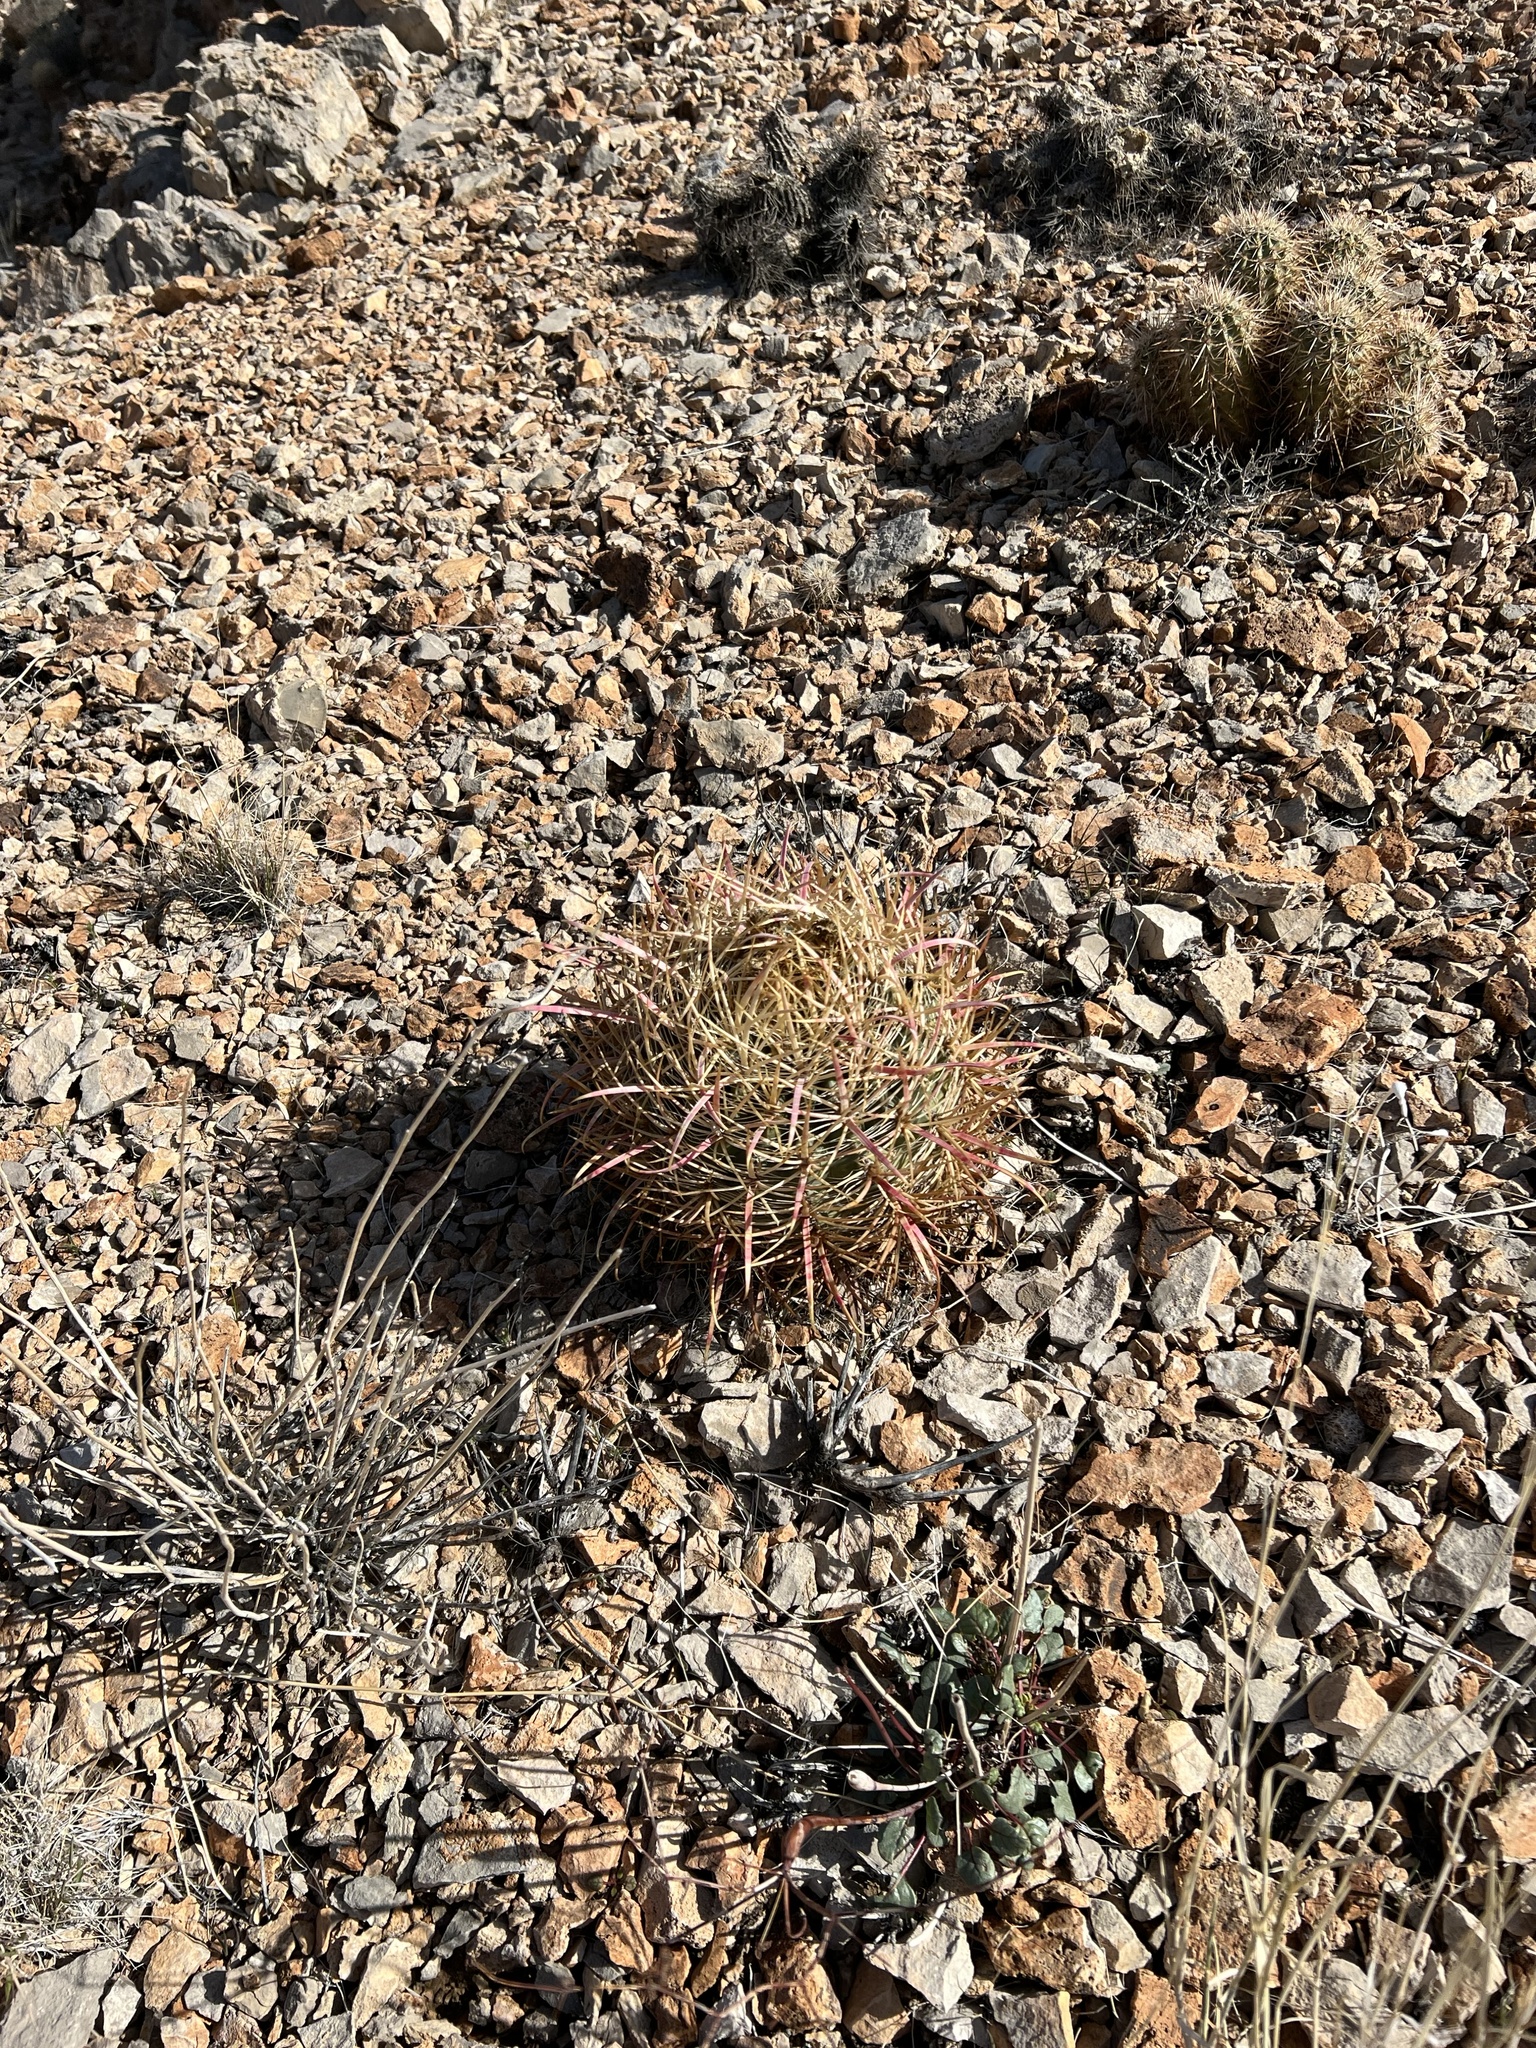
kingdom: Plantae
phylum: Tracheophyta
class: Magnoliopsida
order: Caryophyllales
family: Cactaceae
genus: Ferocactus
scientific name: Ferocactus cylindraceus
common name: California barrel cactus
